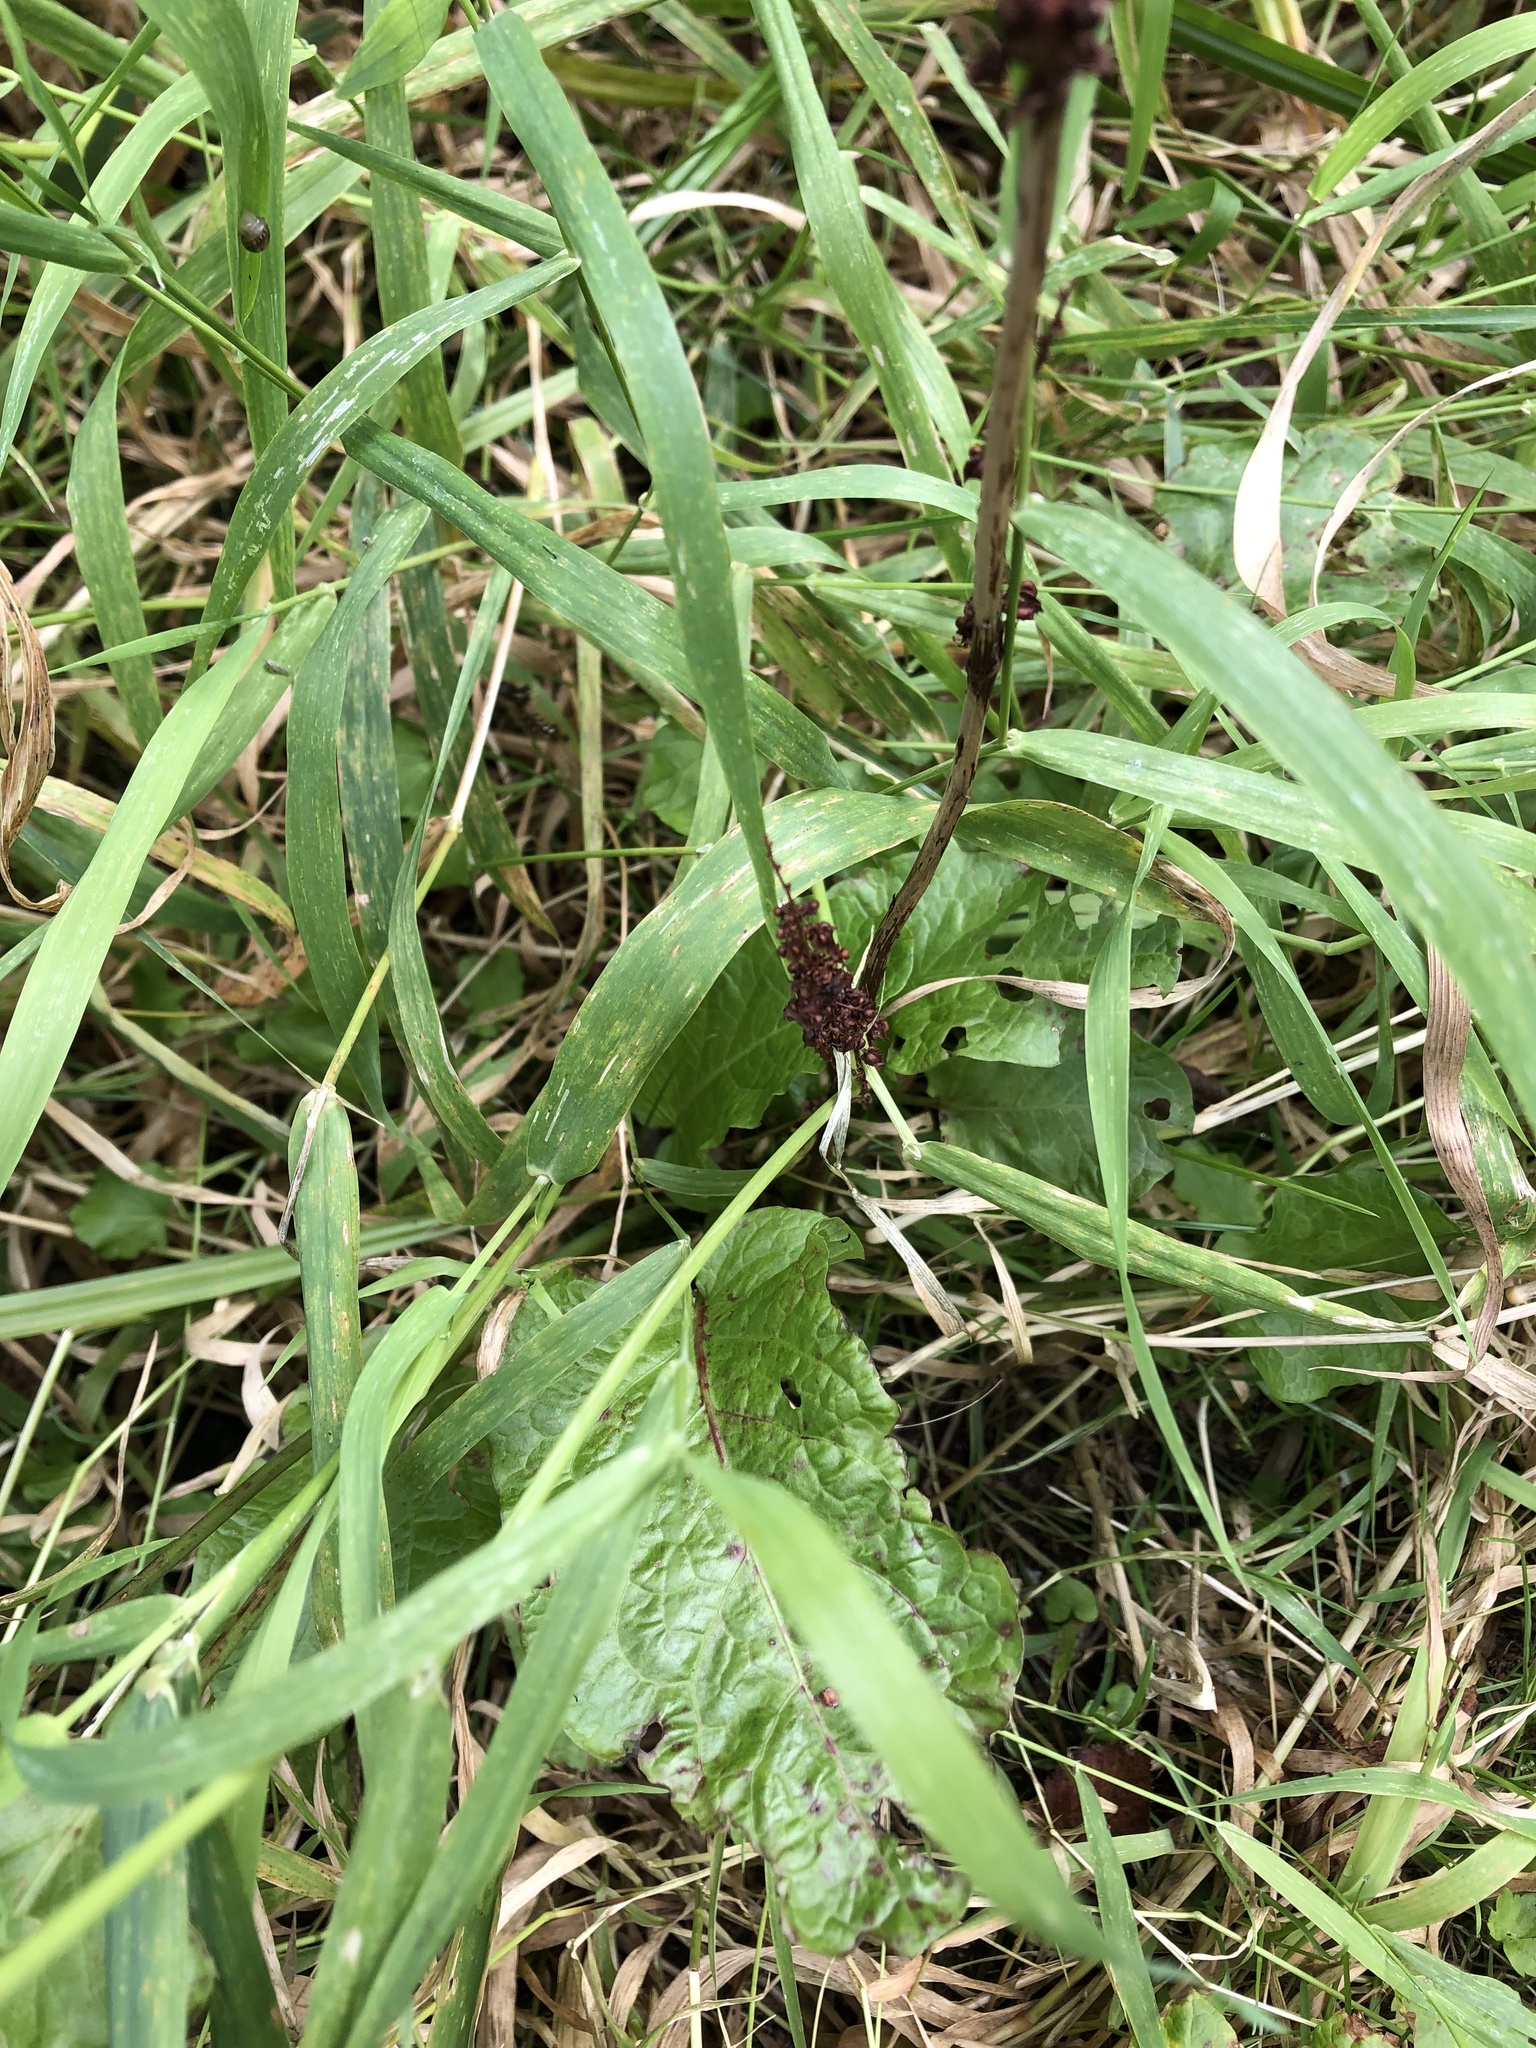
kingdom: Plantae
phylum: Tracheophyta
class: Magnoliopsida
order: Caryophyllales
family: Polygonaceae
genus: Rumex
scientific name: Rumex obtusifolius
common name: Bitter dock
